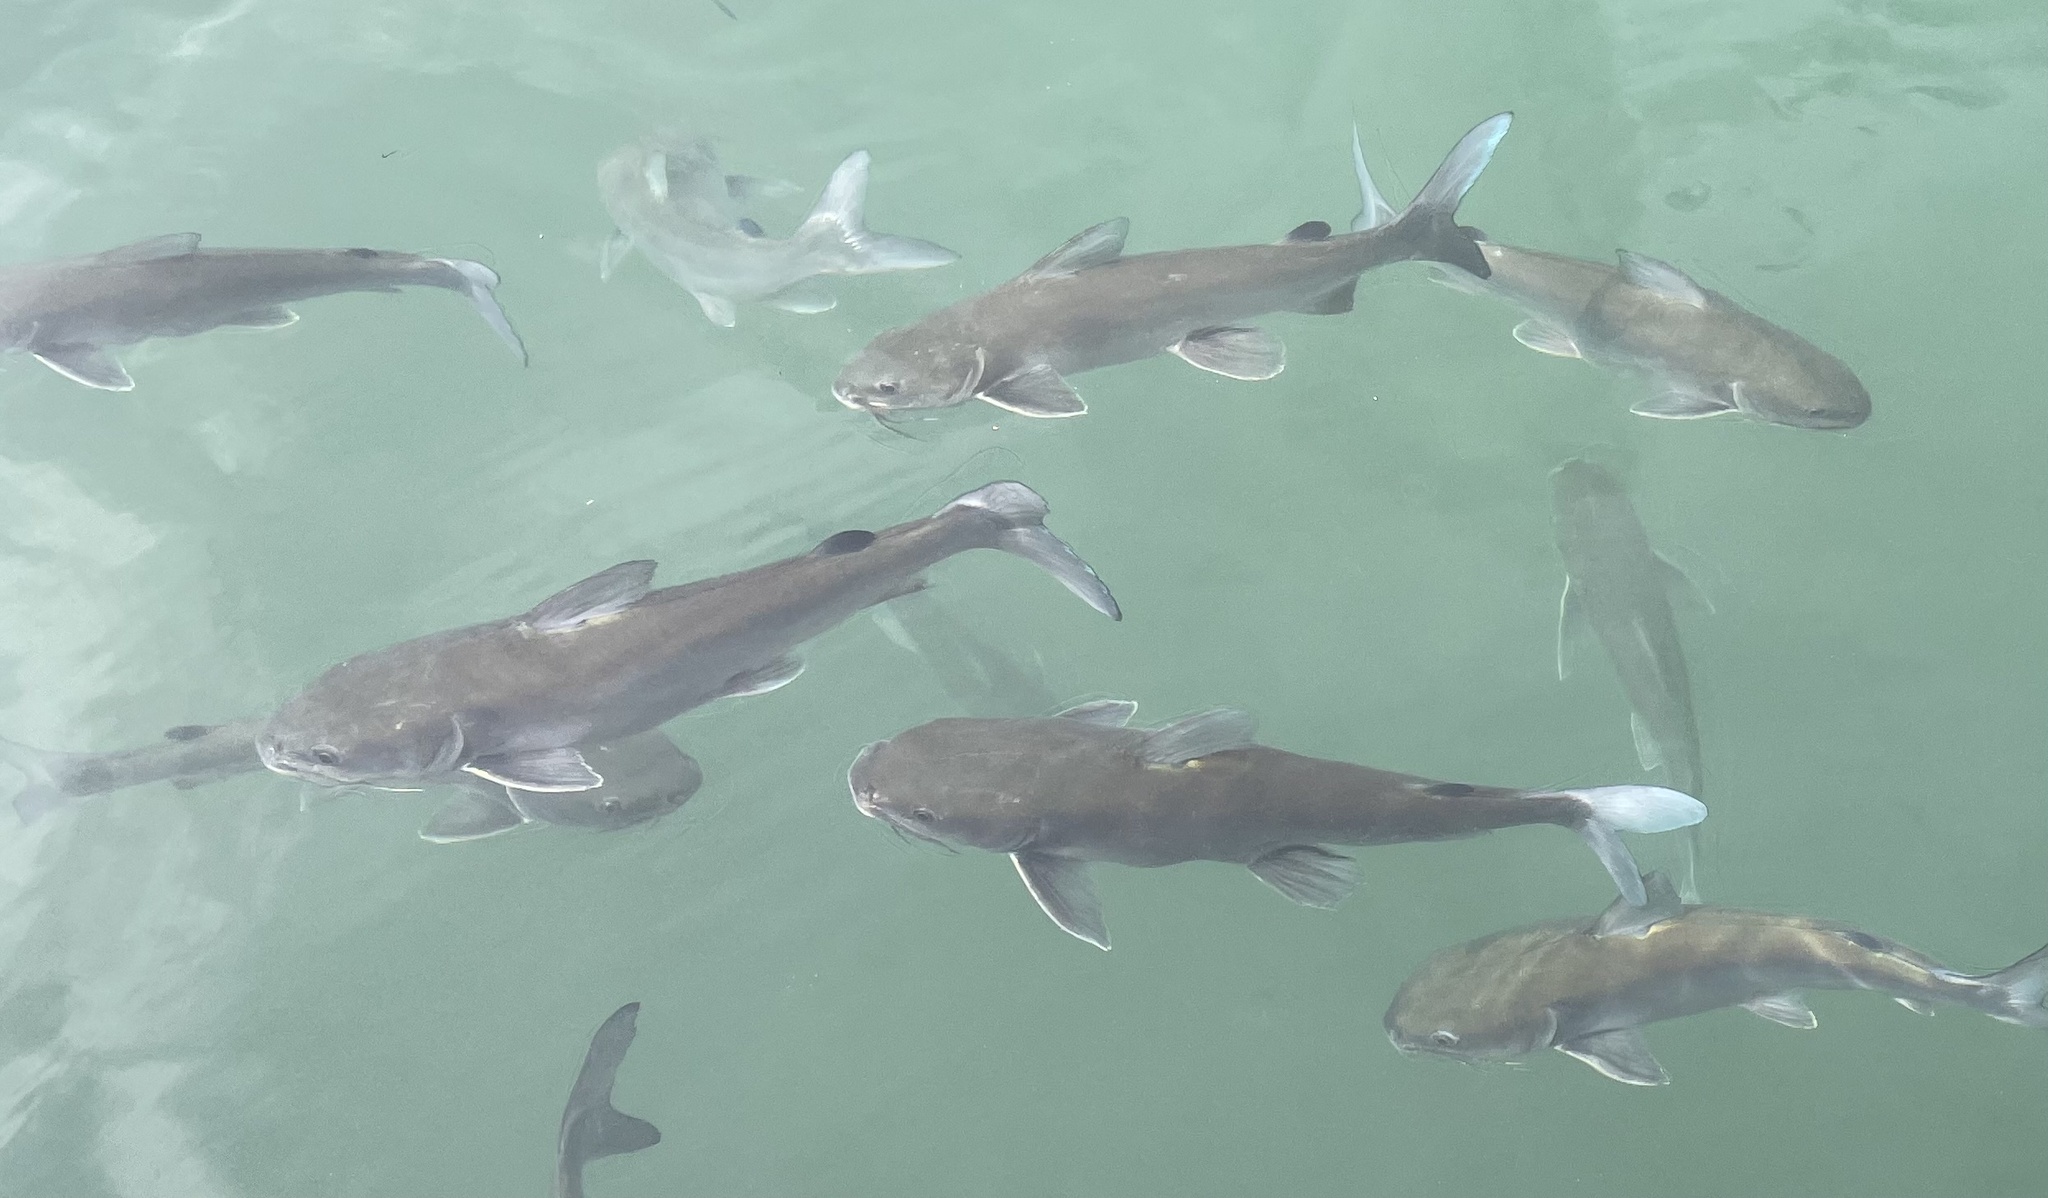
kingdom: Animalia
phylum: Chordata
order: Siluriformes
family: Ariidae
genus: Ariopsis
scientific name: Ariopsis felis
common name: Hardhead catfish
